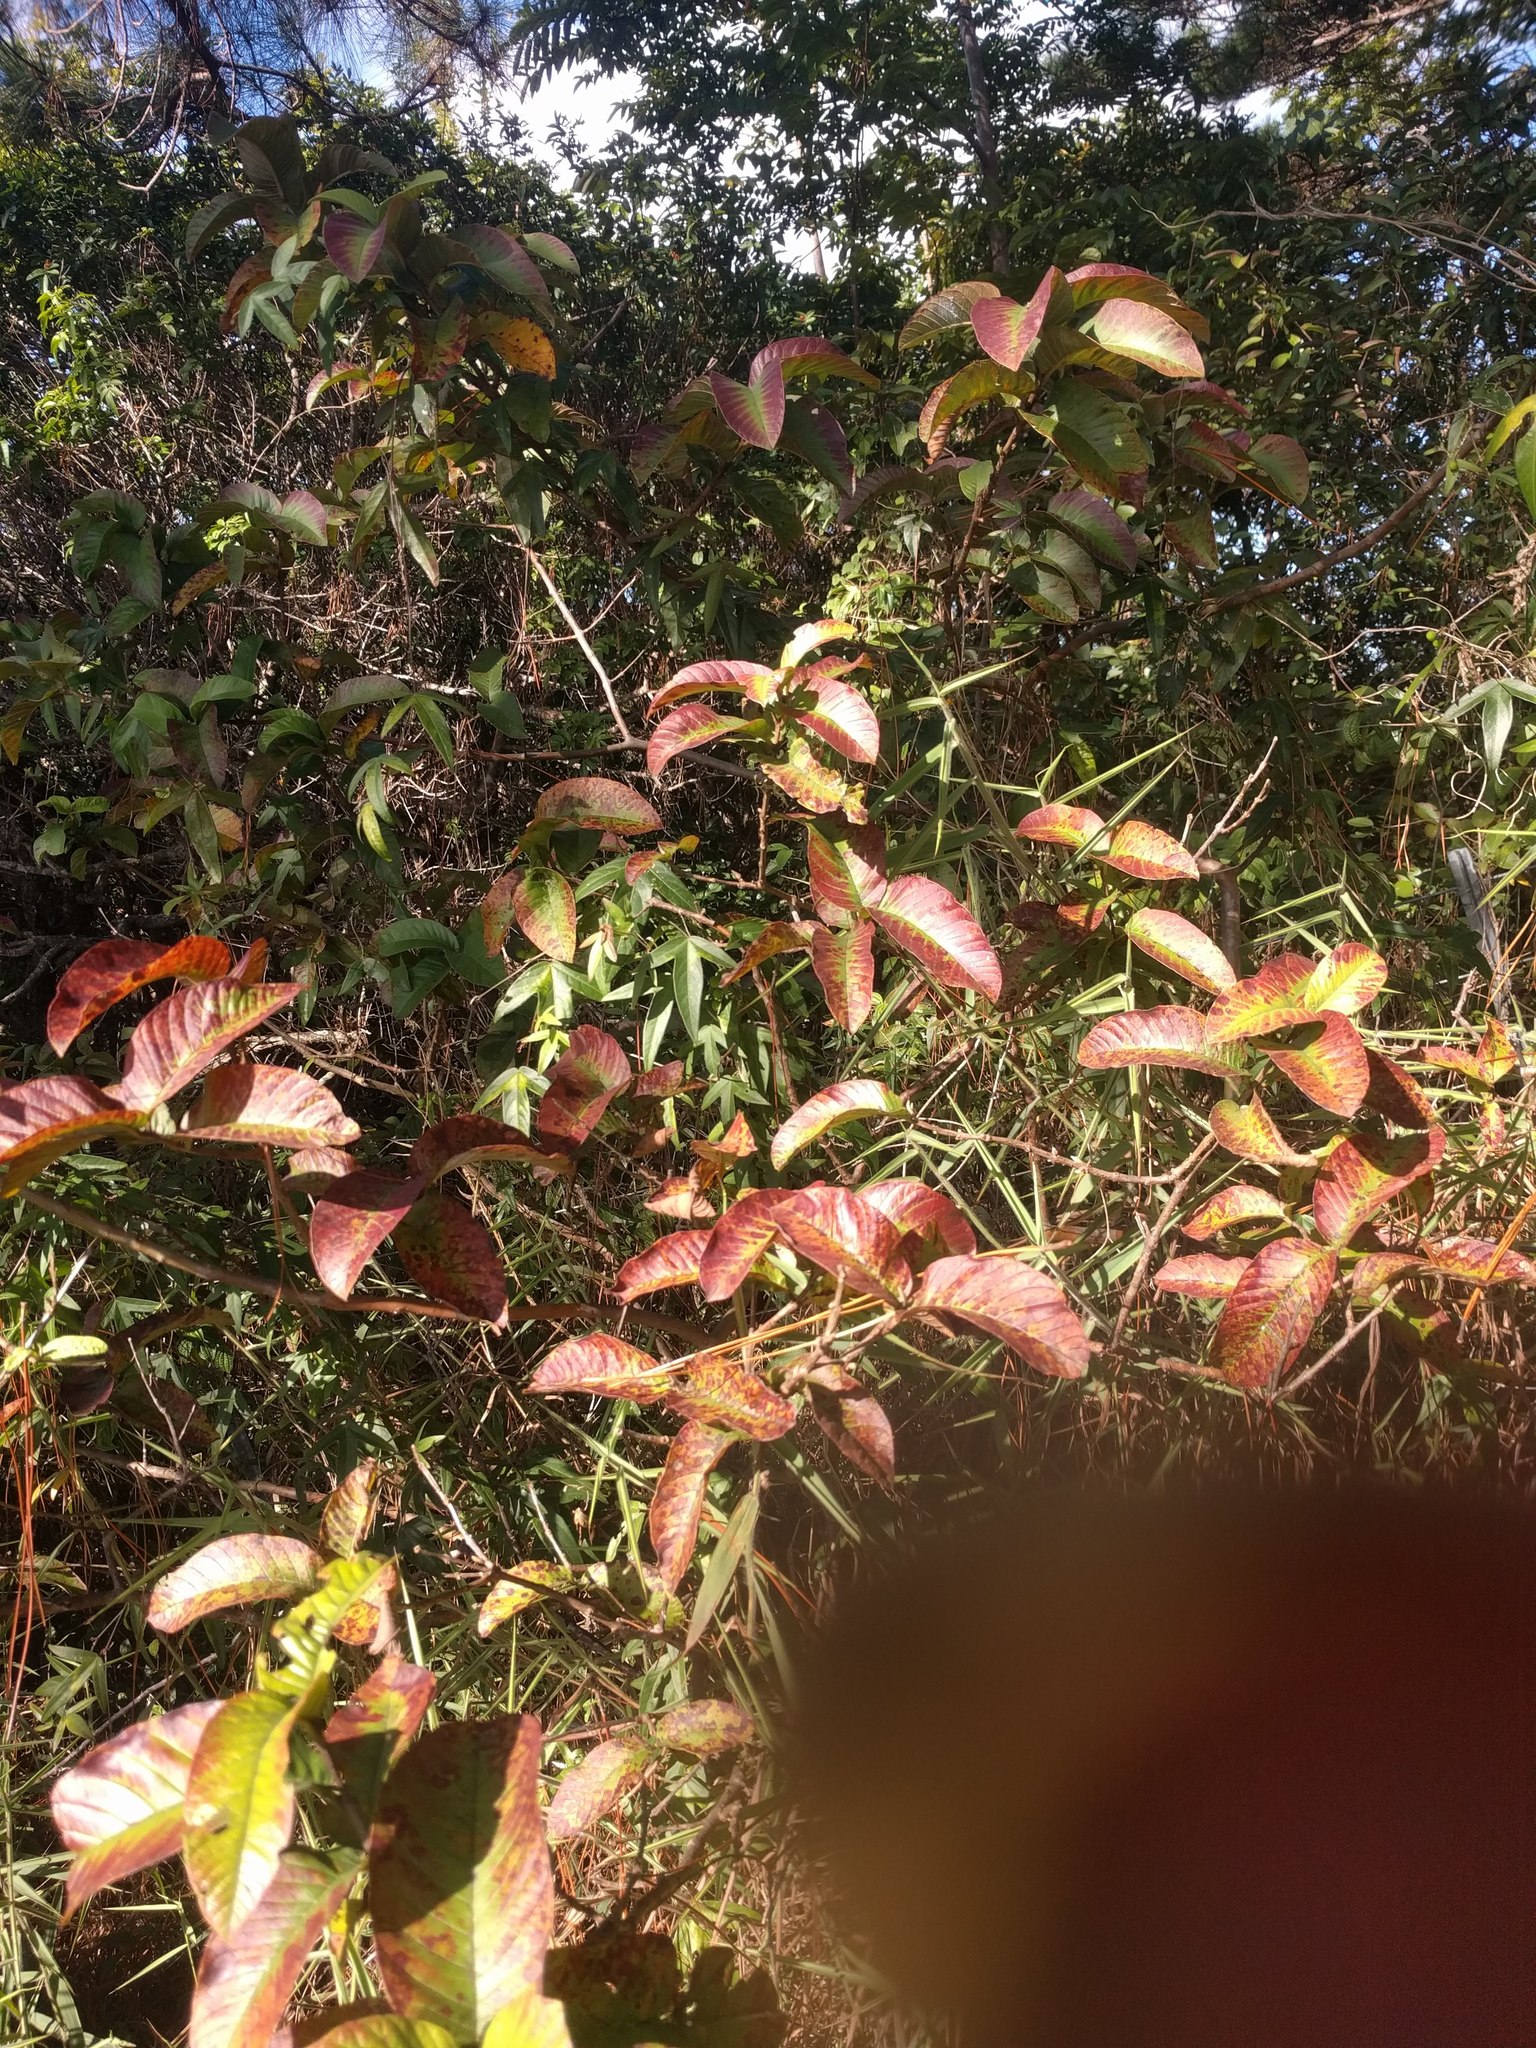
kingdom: Plantae
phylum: Tracheophyta
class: Magnoliopsida
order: Myrtales
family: Myrtaceae
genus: Psidium
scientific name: Psidium guajava
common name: Guava
